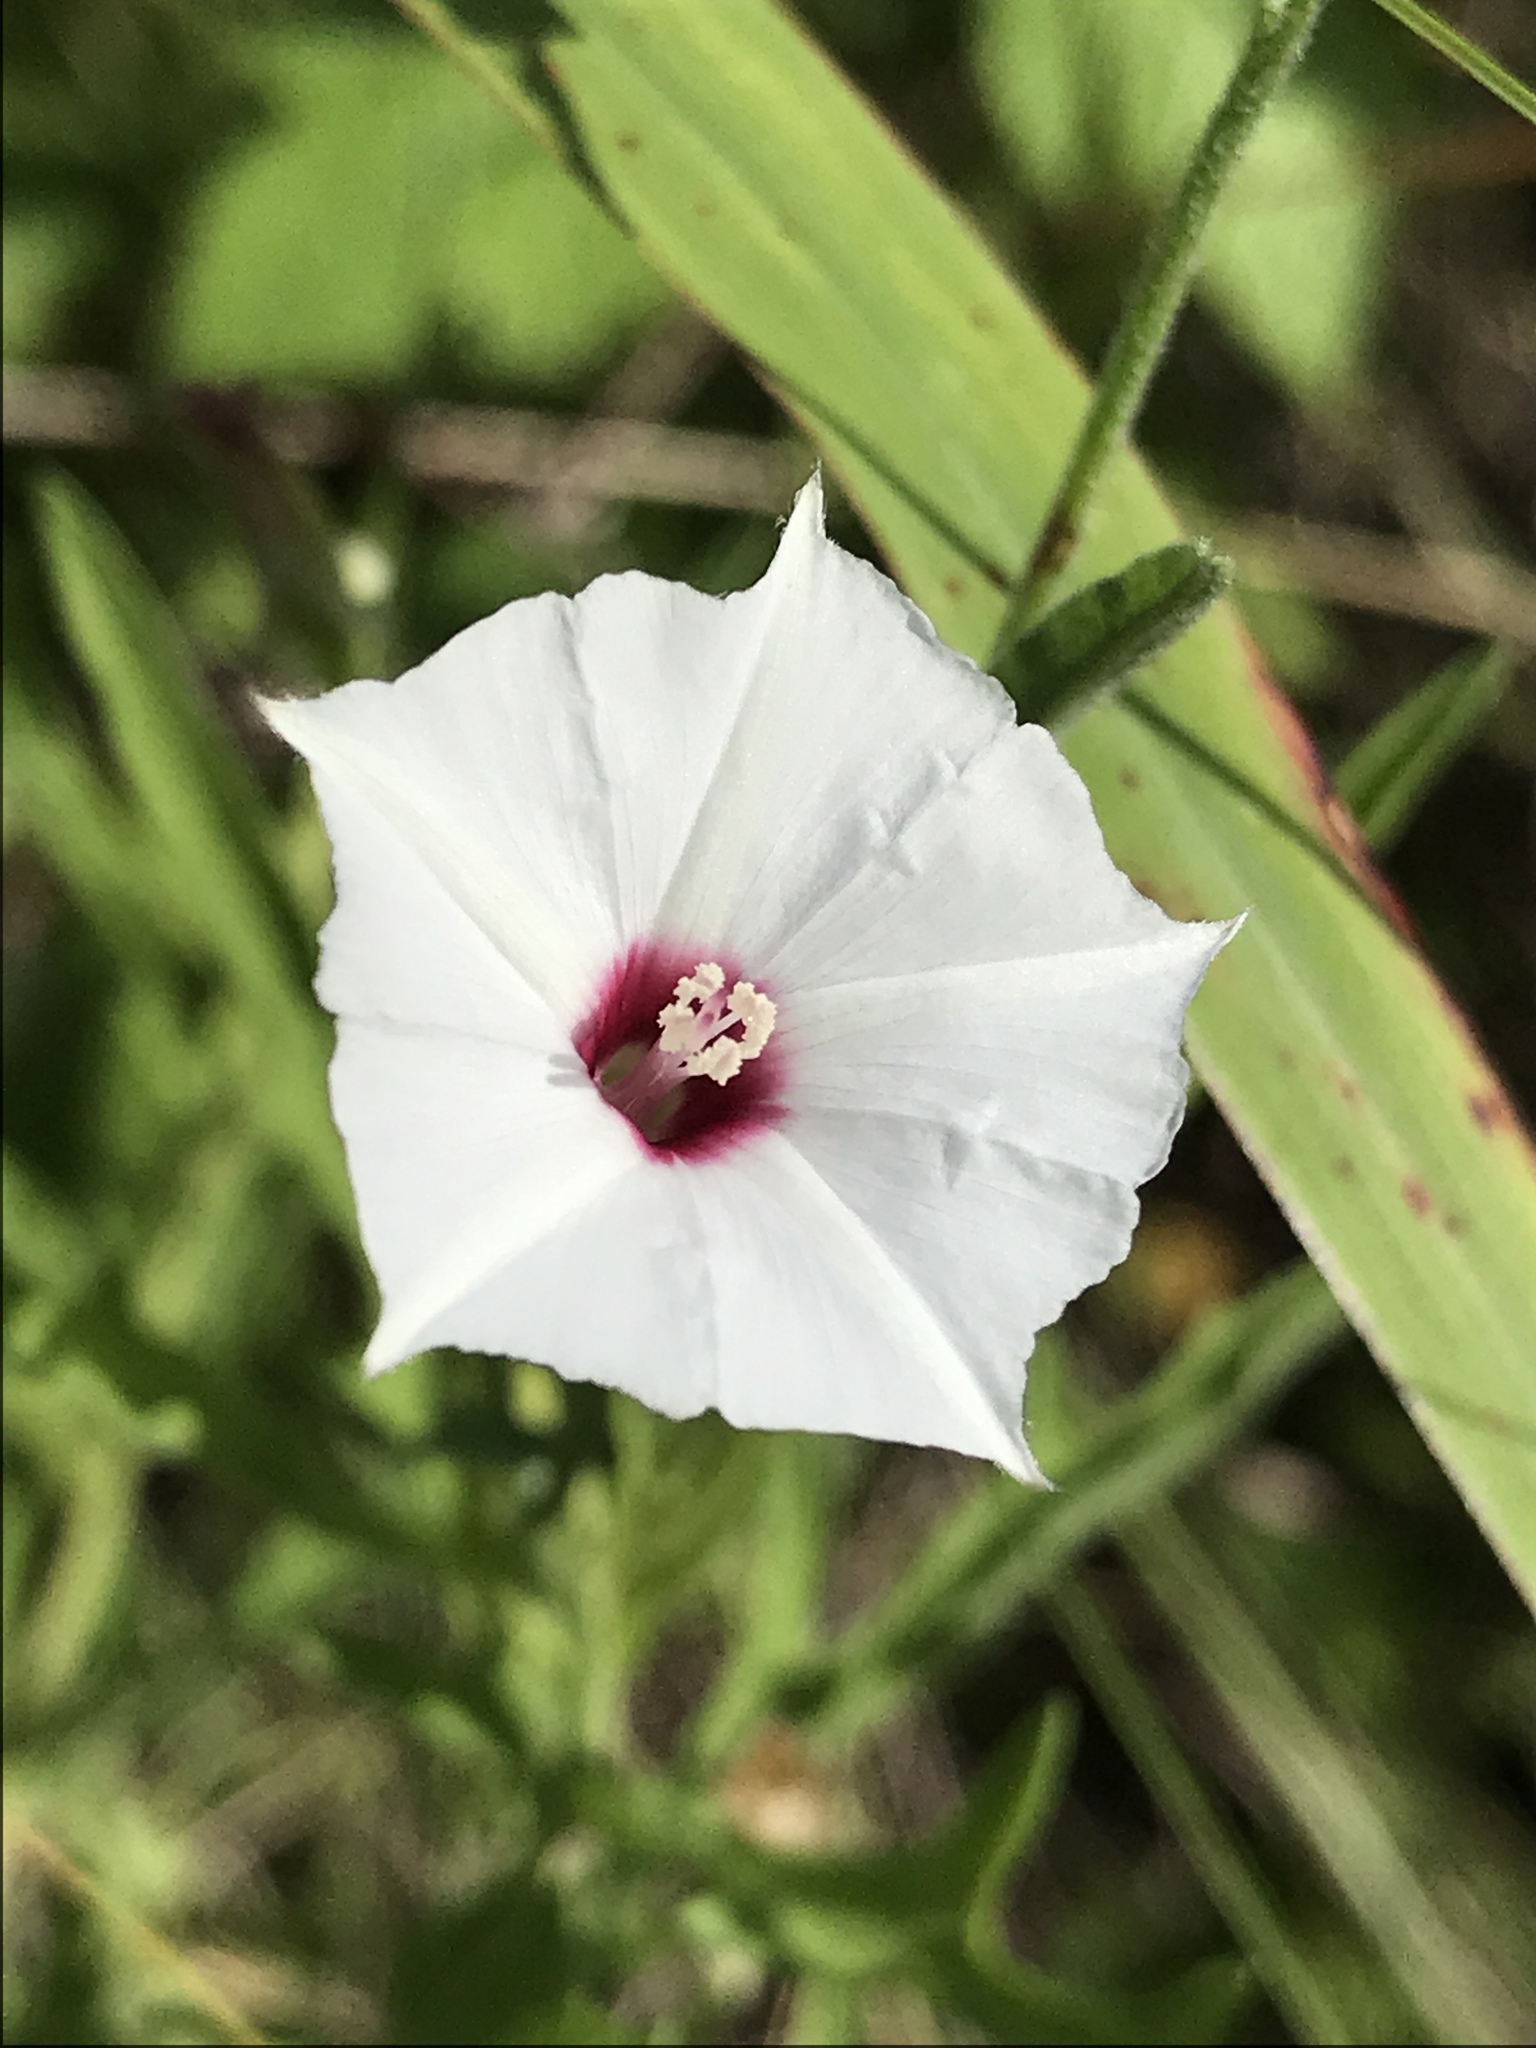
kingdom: Plantae
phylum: Tracheophyta
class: Magnoliopsida
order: Solanales
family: Convolvulaceae
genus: Convolvulus
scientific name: Convolvulus equitans
